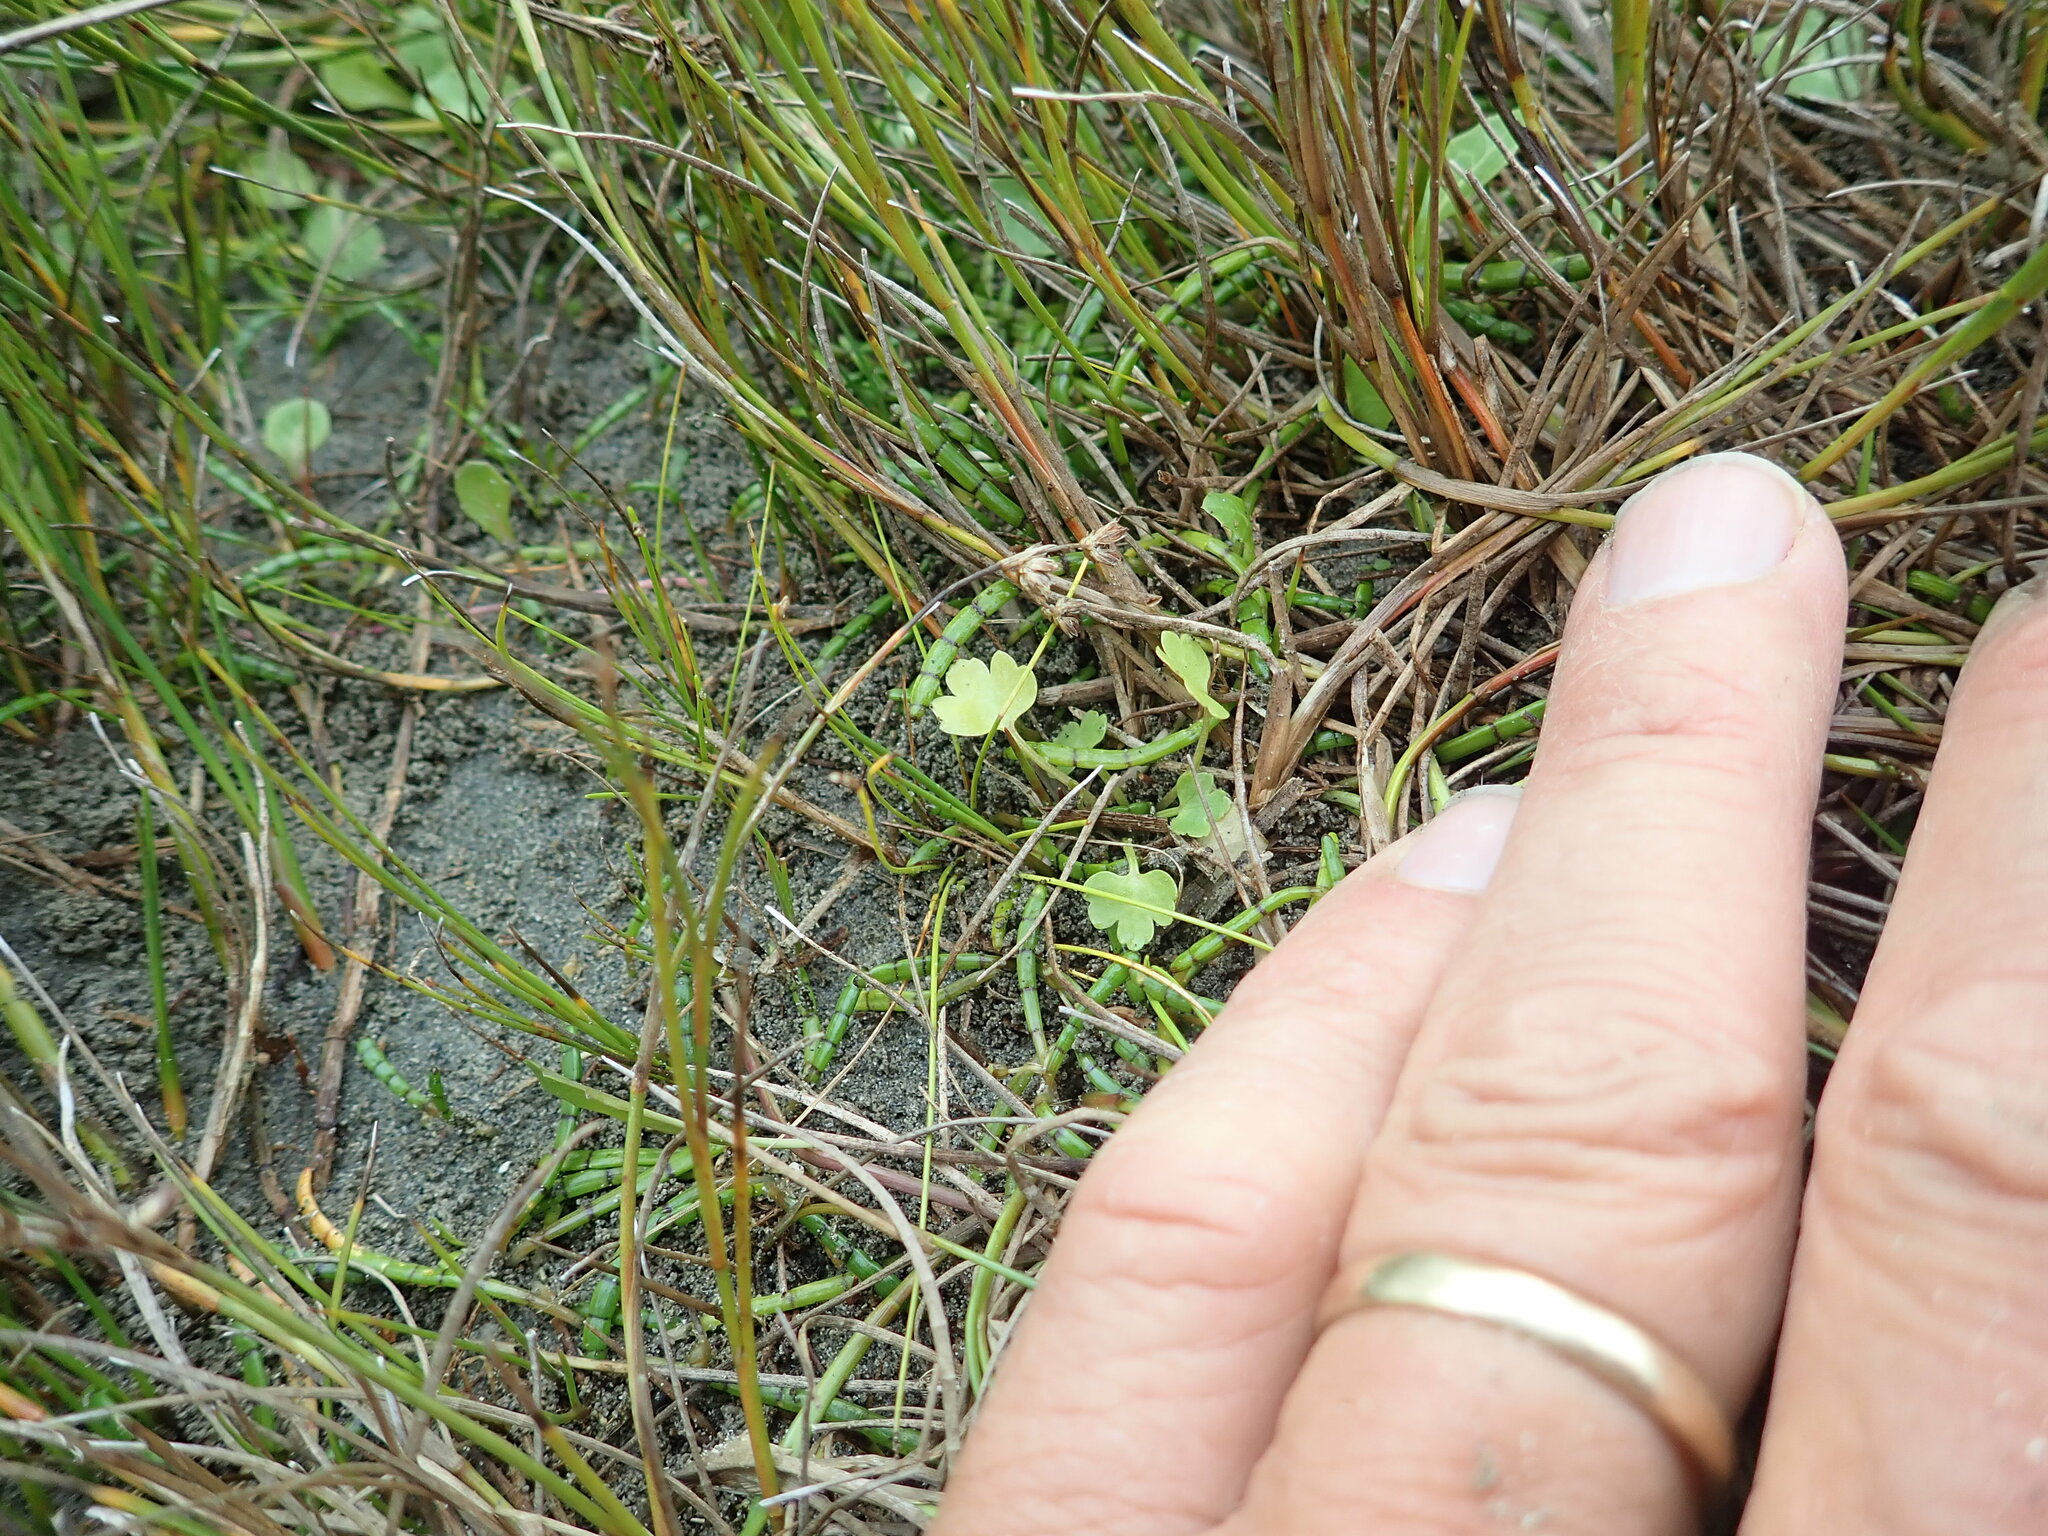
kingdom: Plantae
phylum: Tracheophyta
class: Magnoliopsida
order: Apiales
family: Apiaceae
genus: Apium
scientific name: Apium prostratum
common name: Prostrate marshwort
